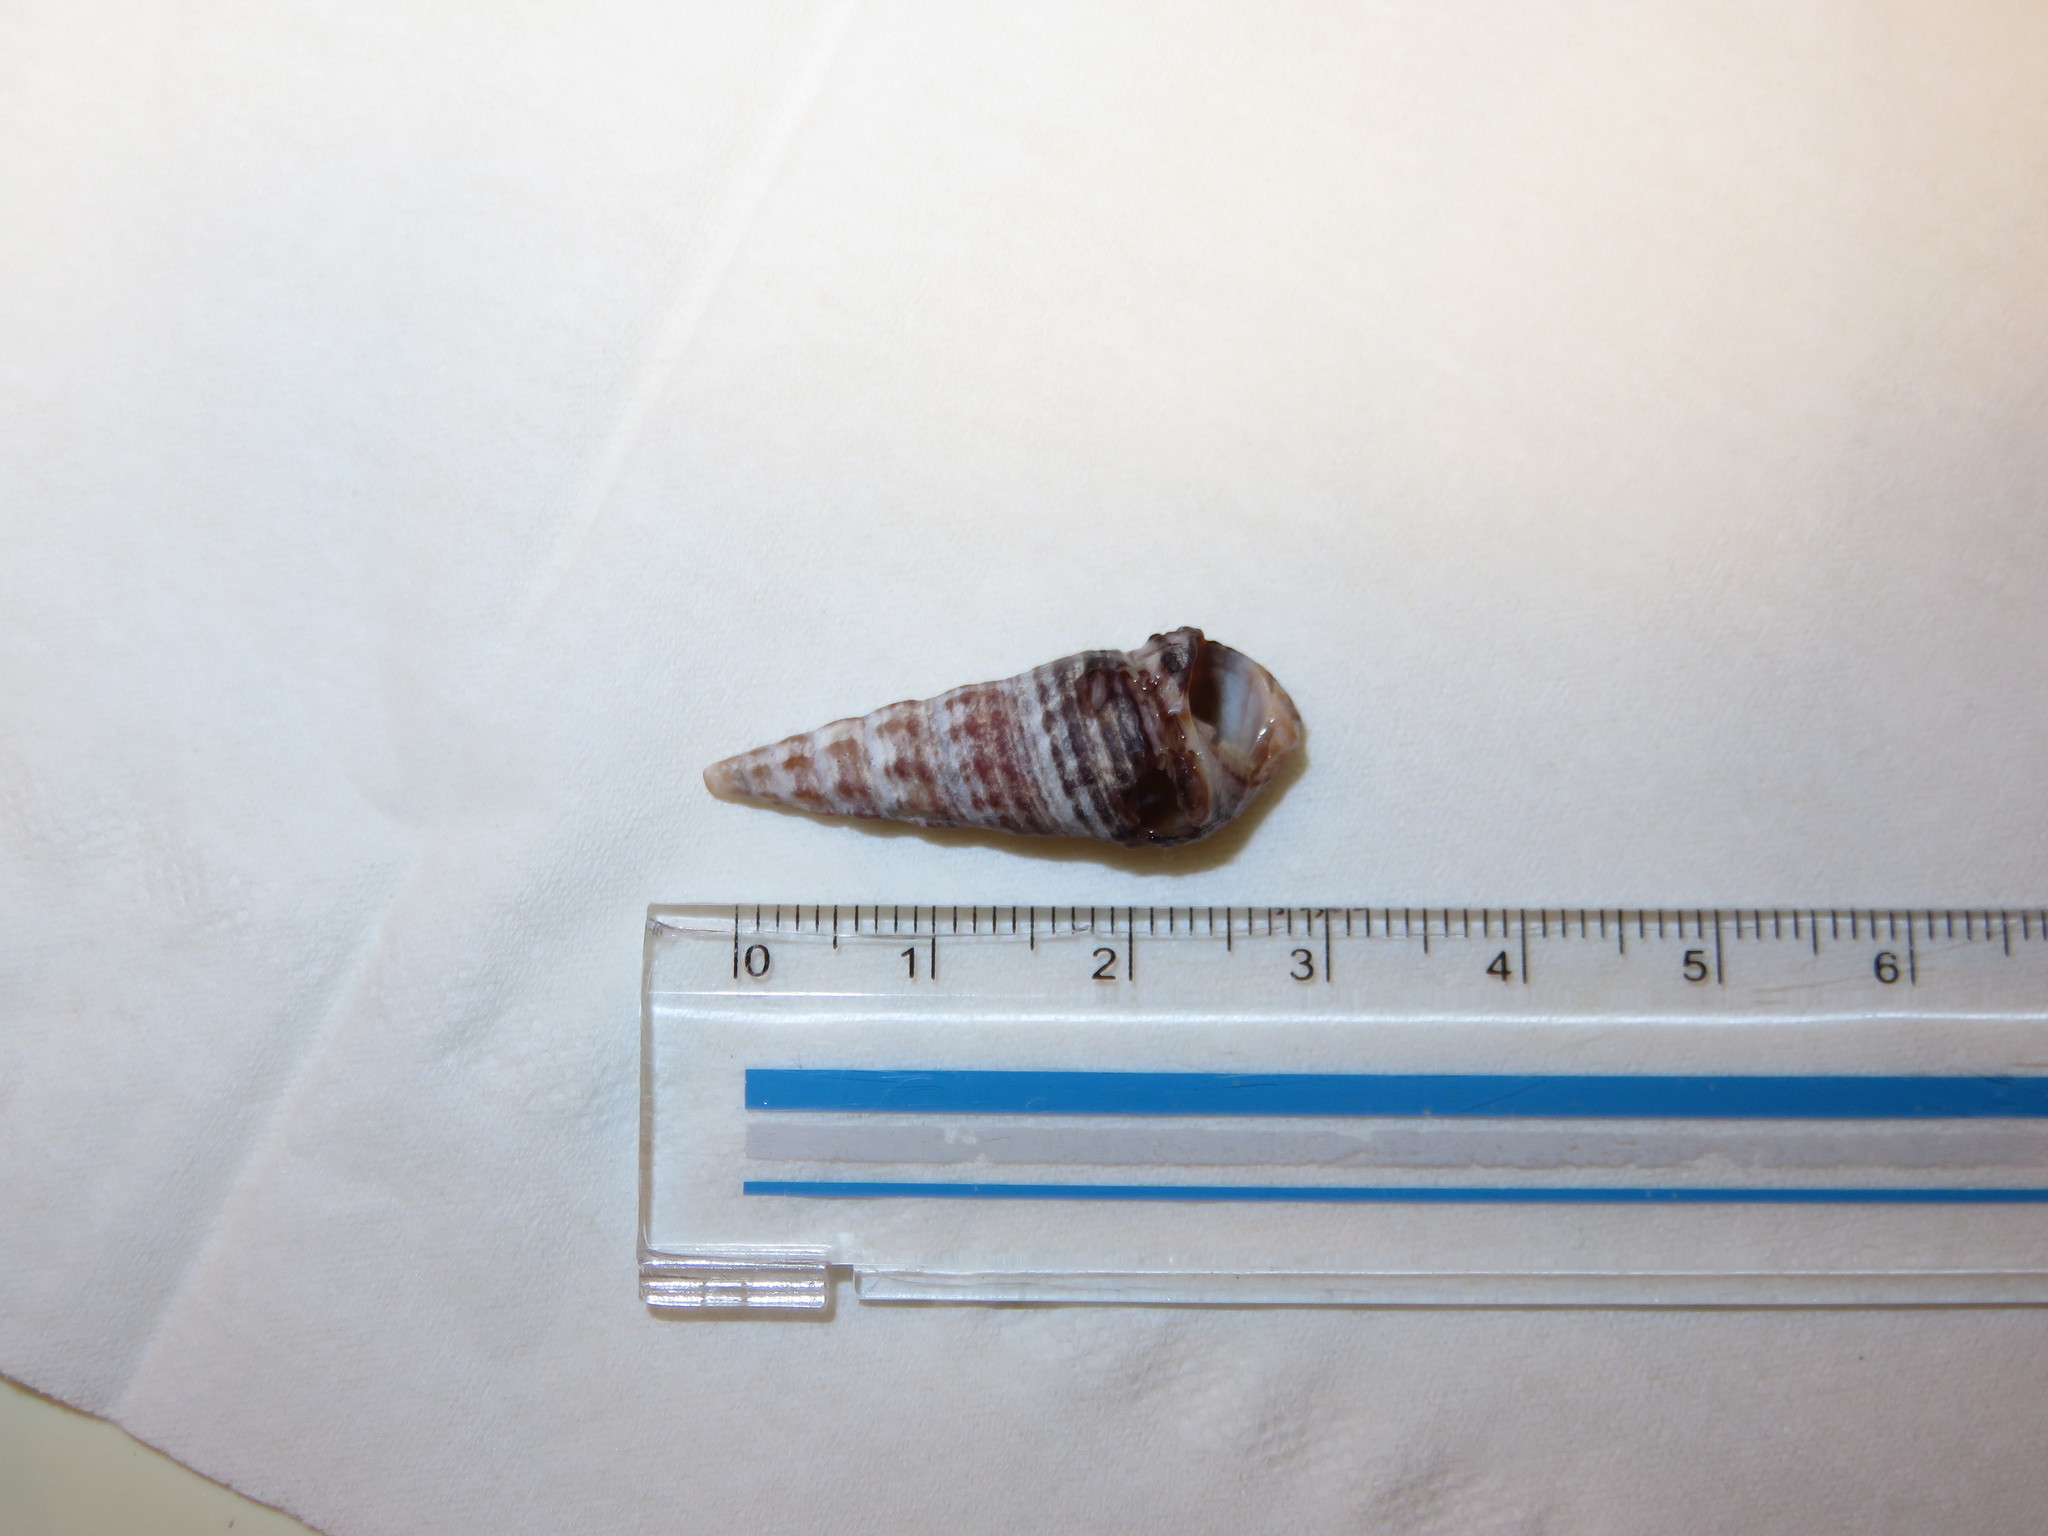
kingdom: Animalia
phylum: Mollusca
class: Gastropoda
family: Batillariidae
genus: Batillaria
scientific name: Batillaria attramentaria
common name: Japanese false cerith
